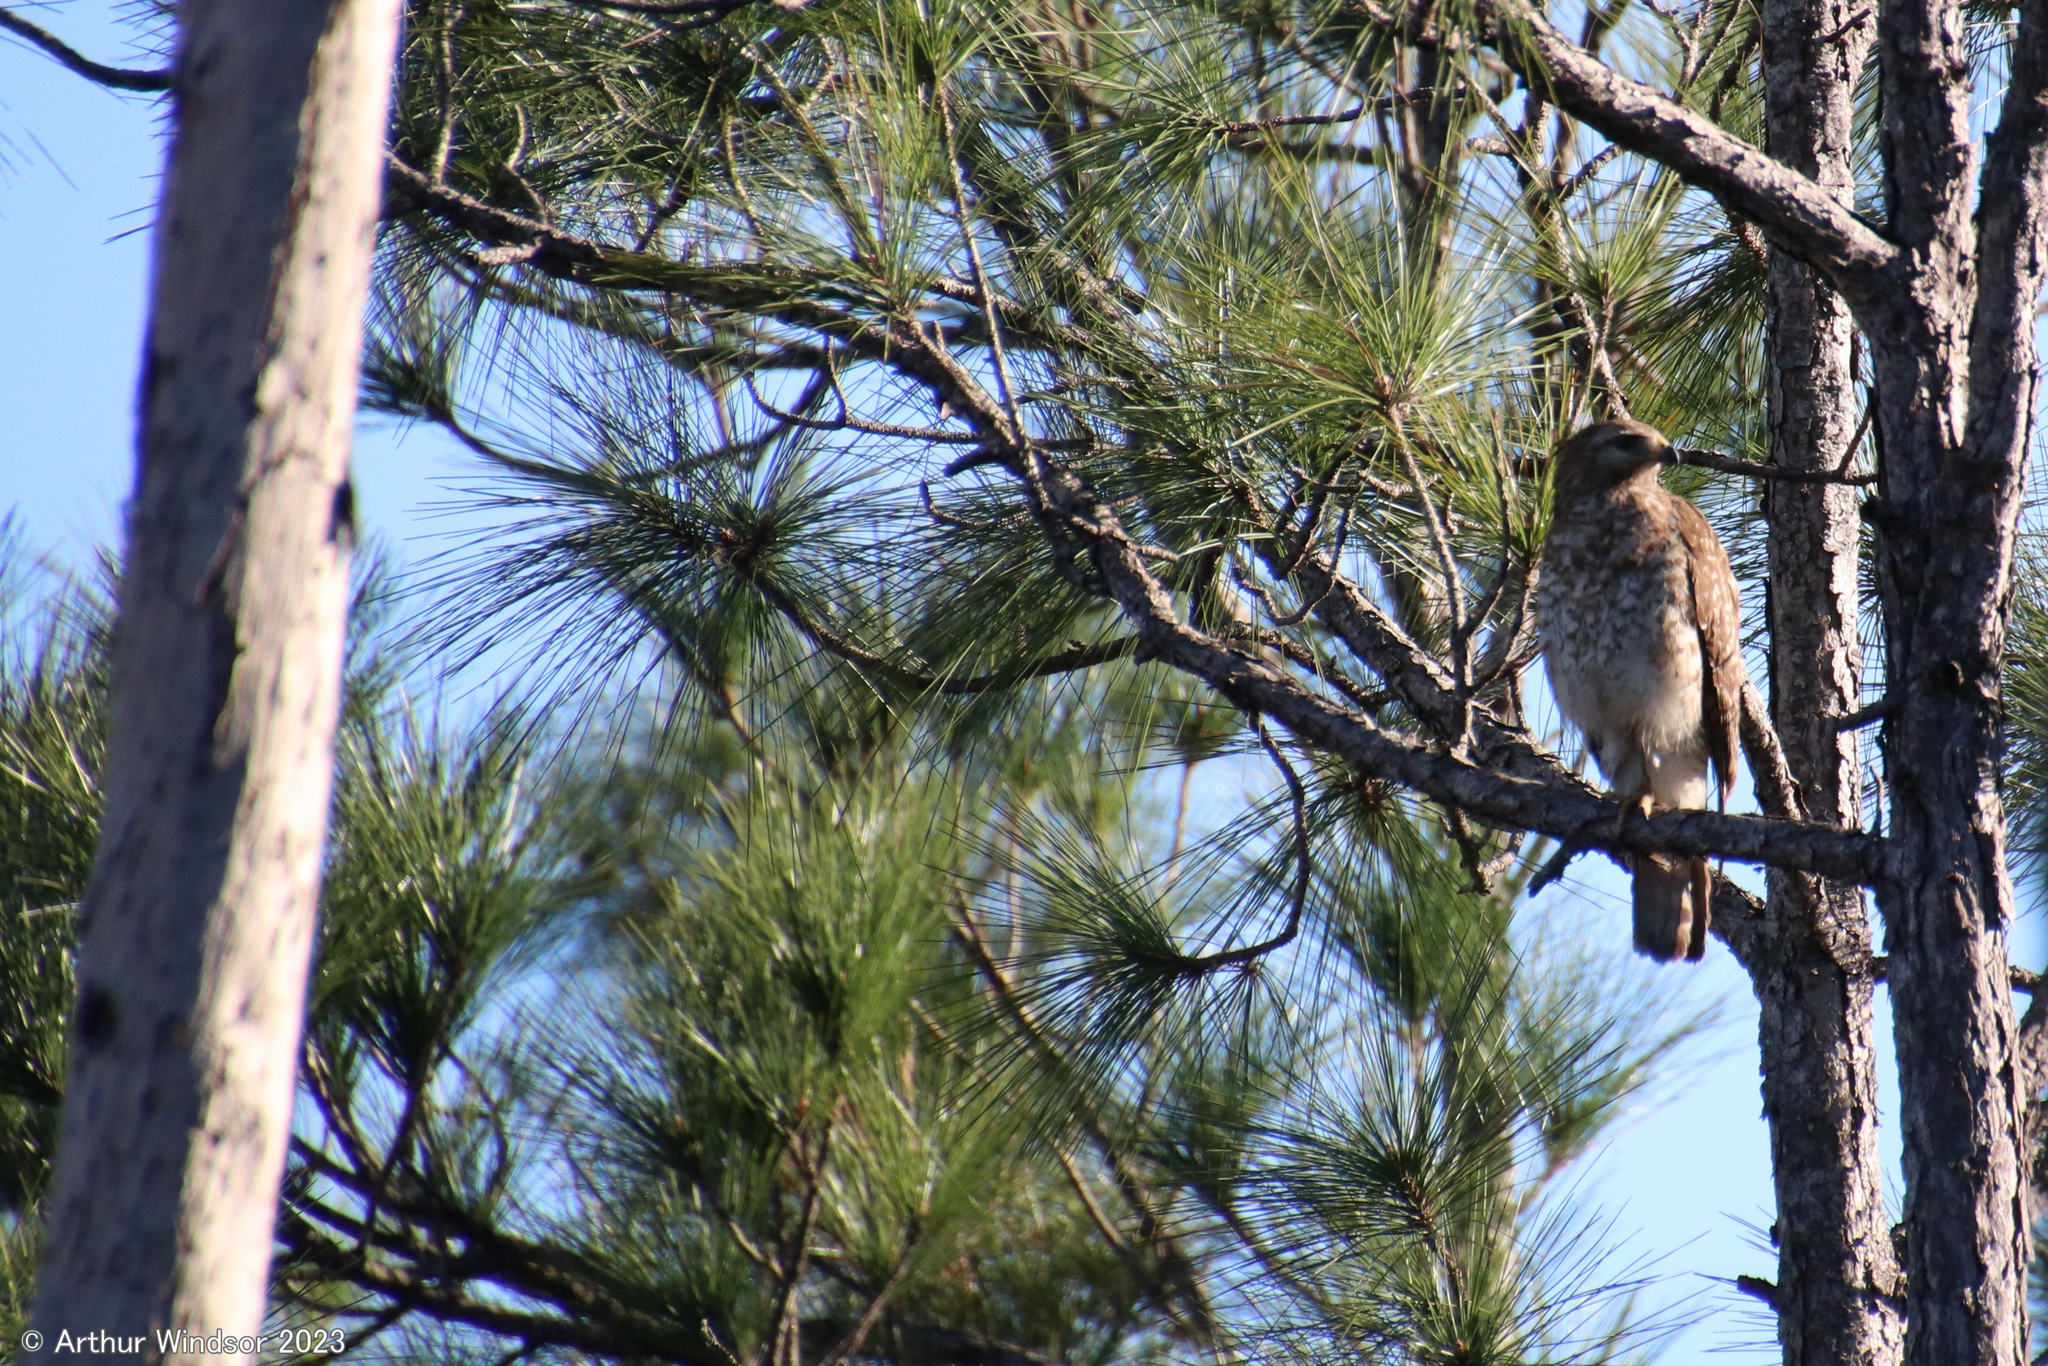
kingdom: Animalia
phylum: Chordata
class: Aves
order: Accipitriformes
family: Accipitridae
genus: Buteo
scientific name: Buteo lineatus
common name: Red-shouldered hawk
